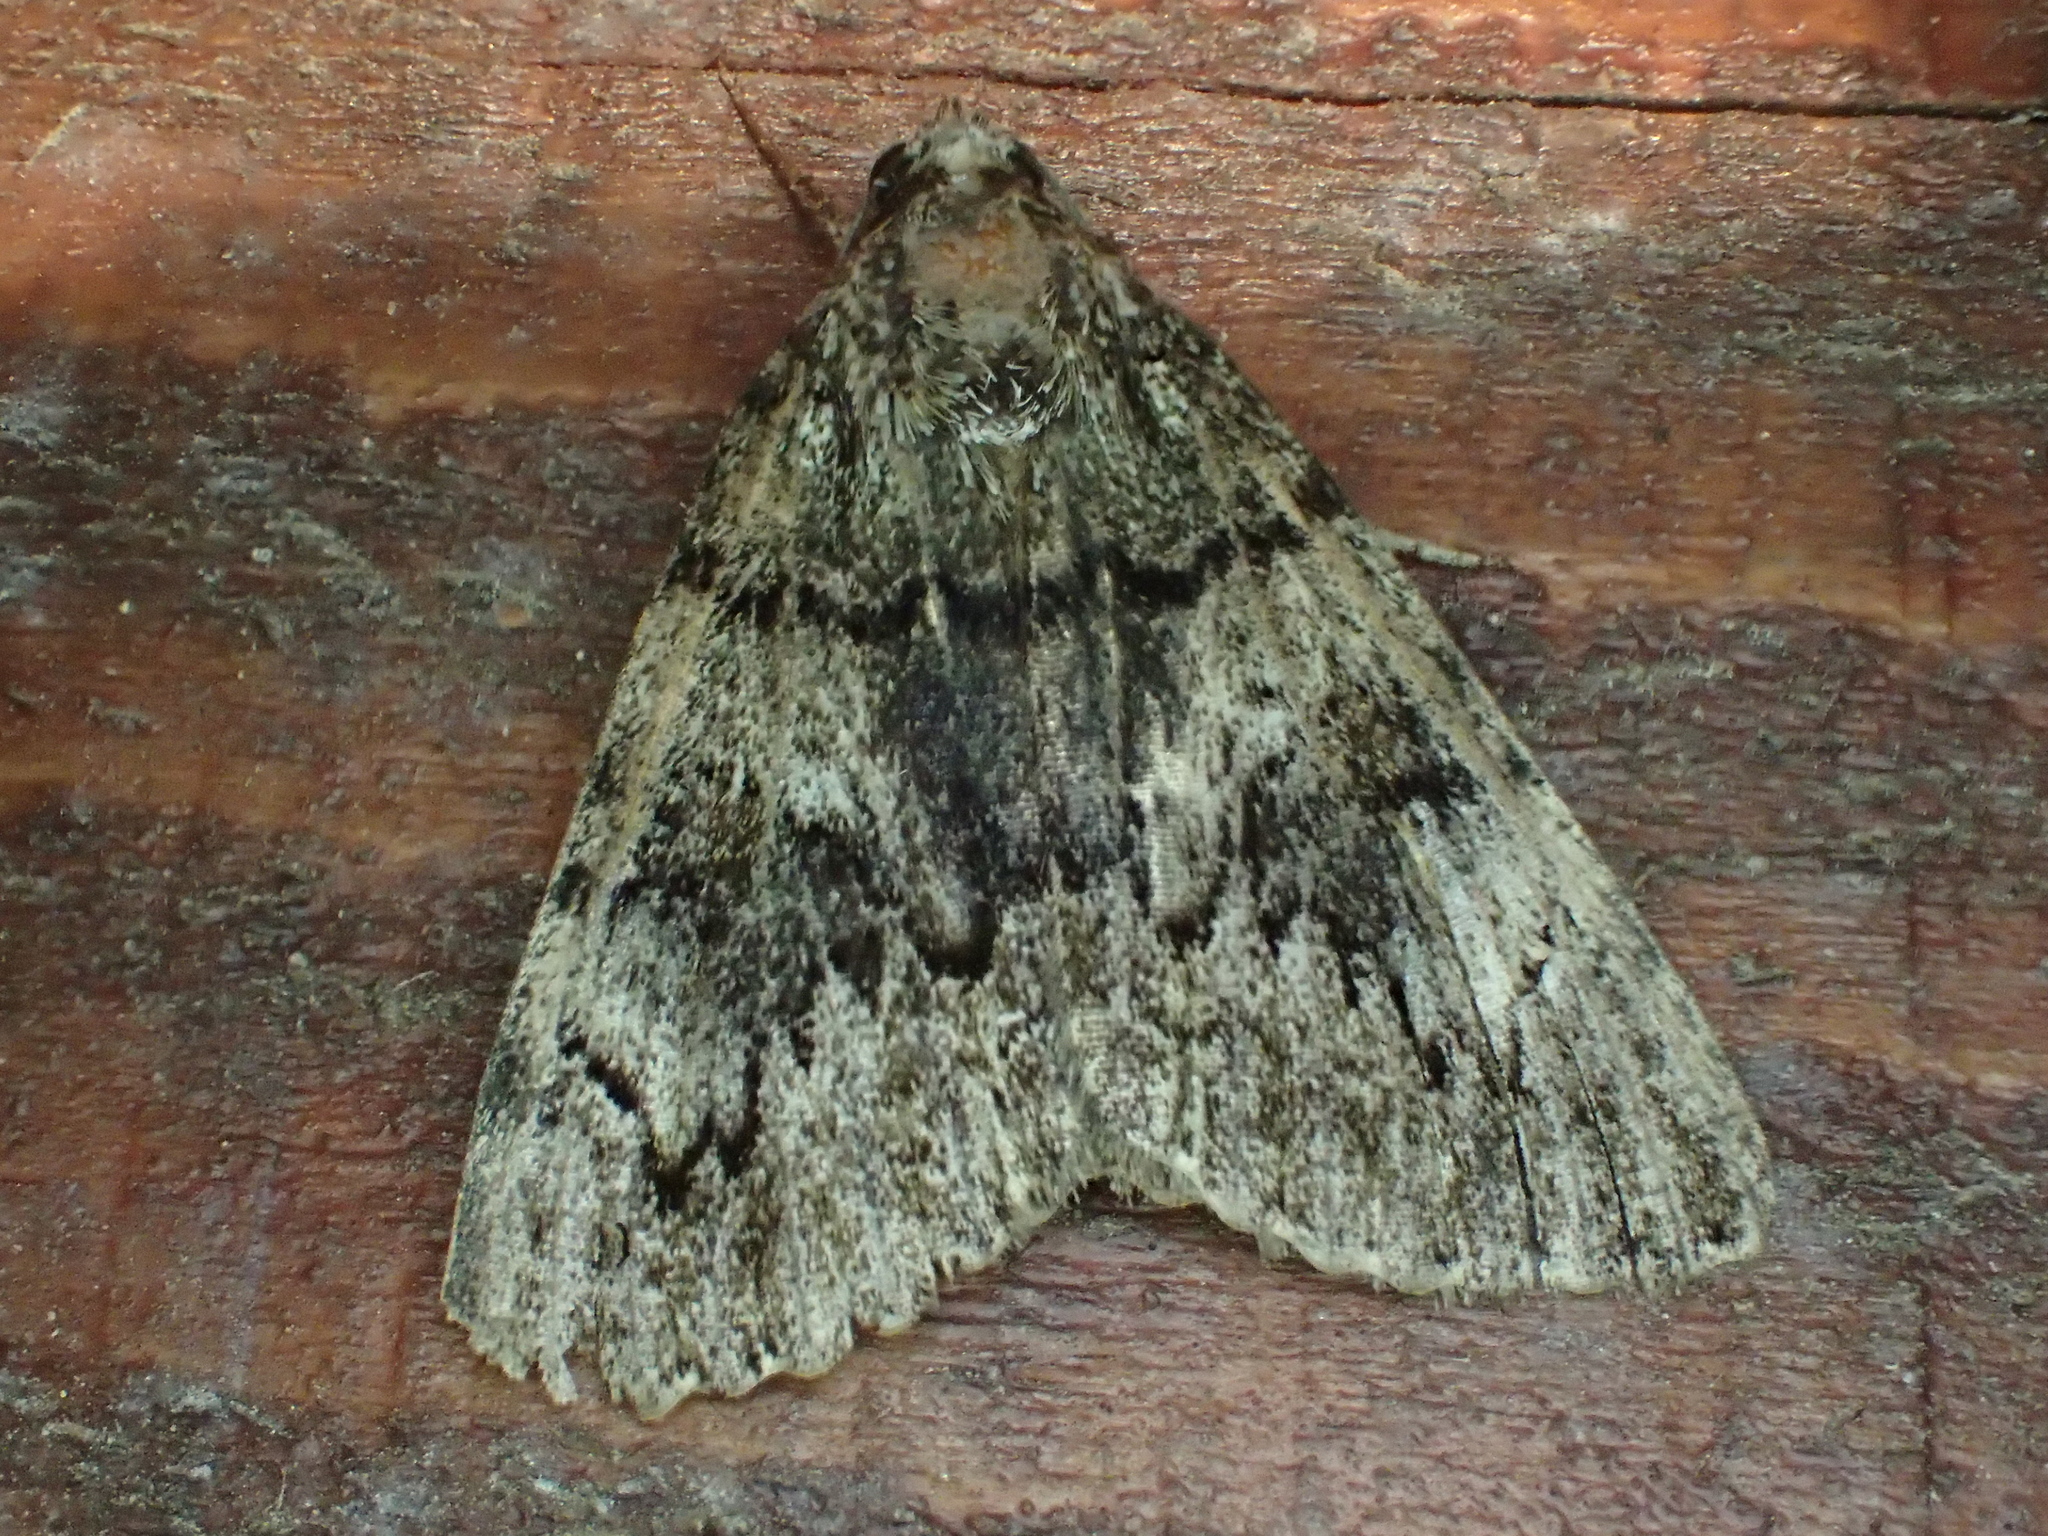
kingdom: Animalia
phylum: Arthropoda
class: Insecta
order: Lepidoptera
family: Erebidae
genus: Catocala
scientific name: Catocala nymphagoga
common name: Oak yellow underwing
